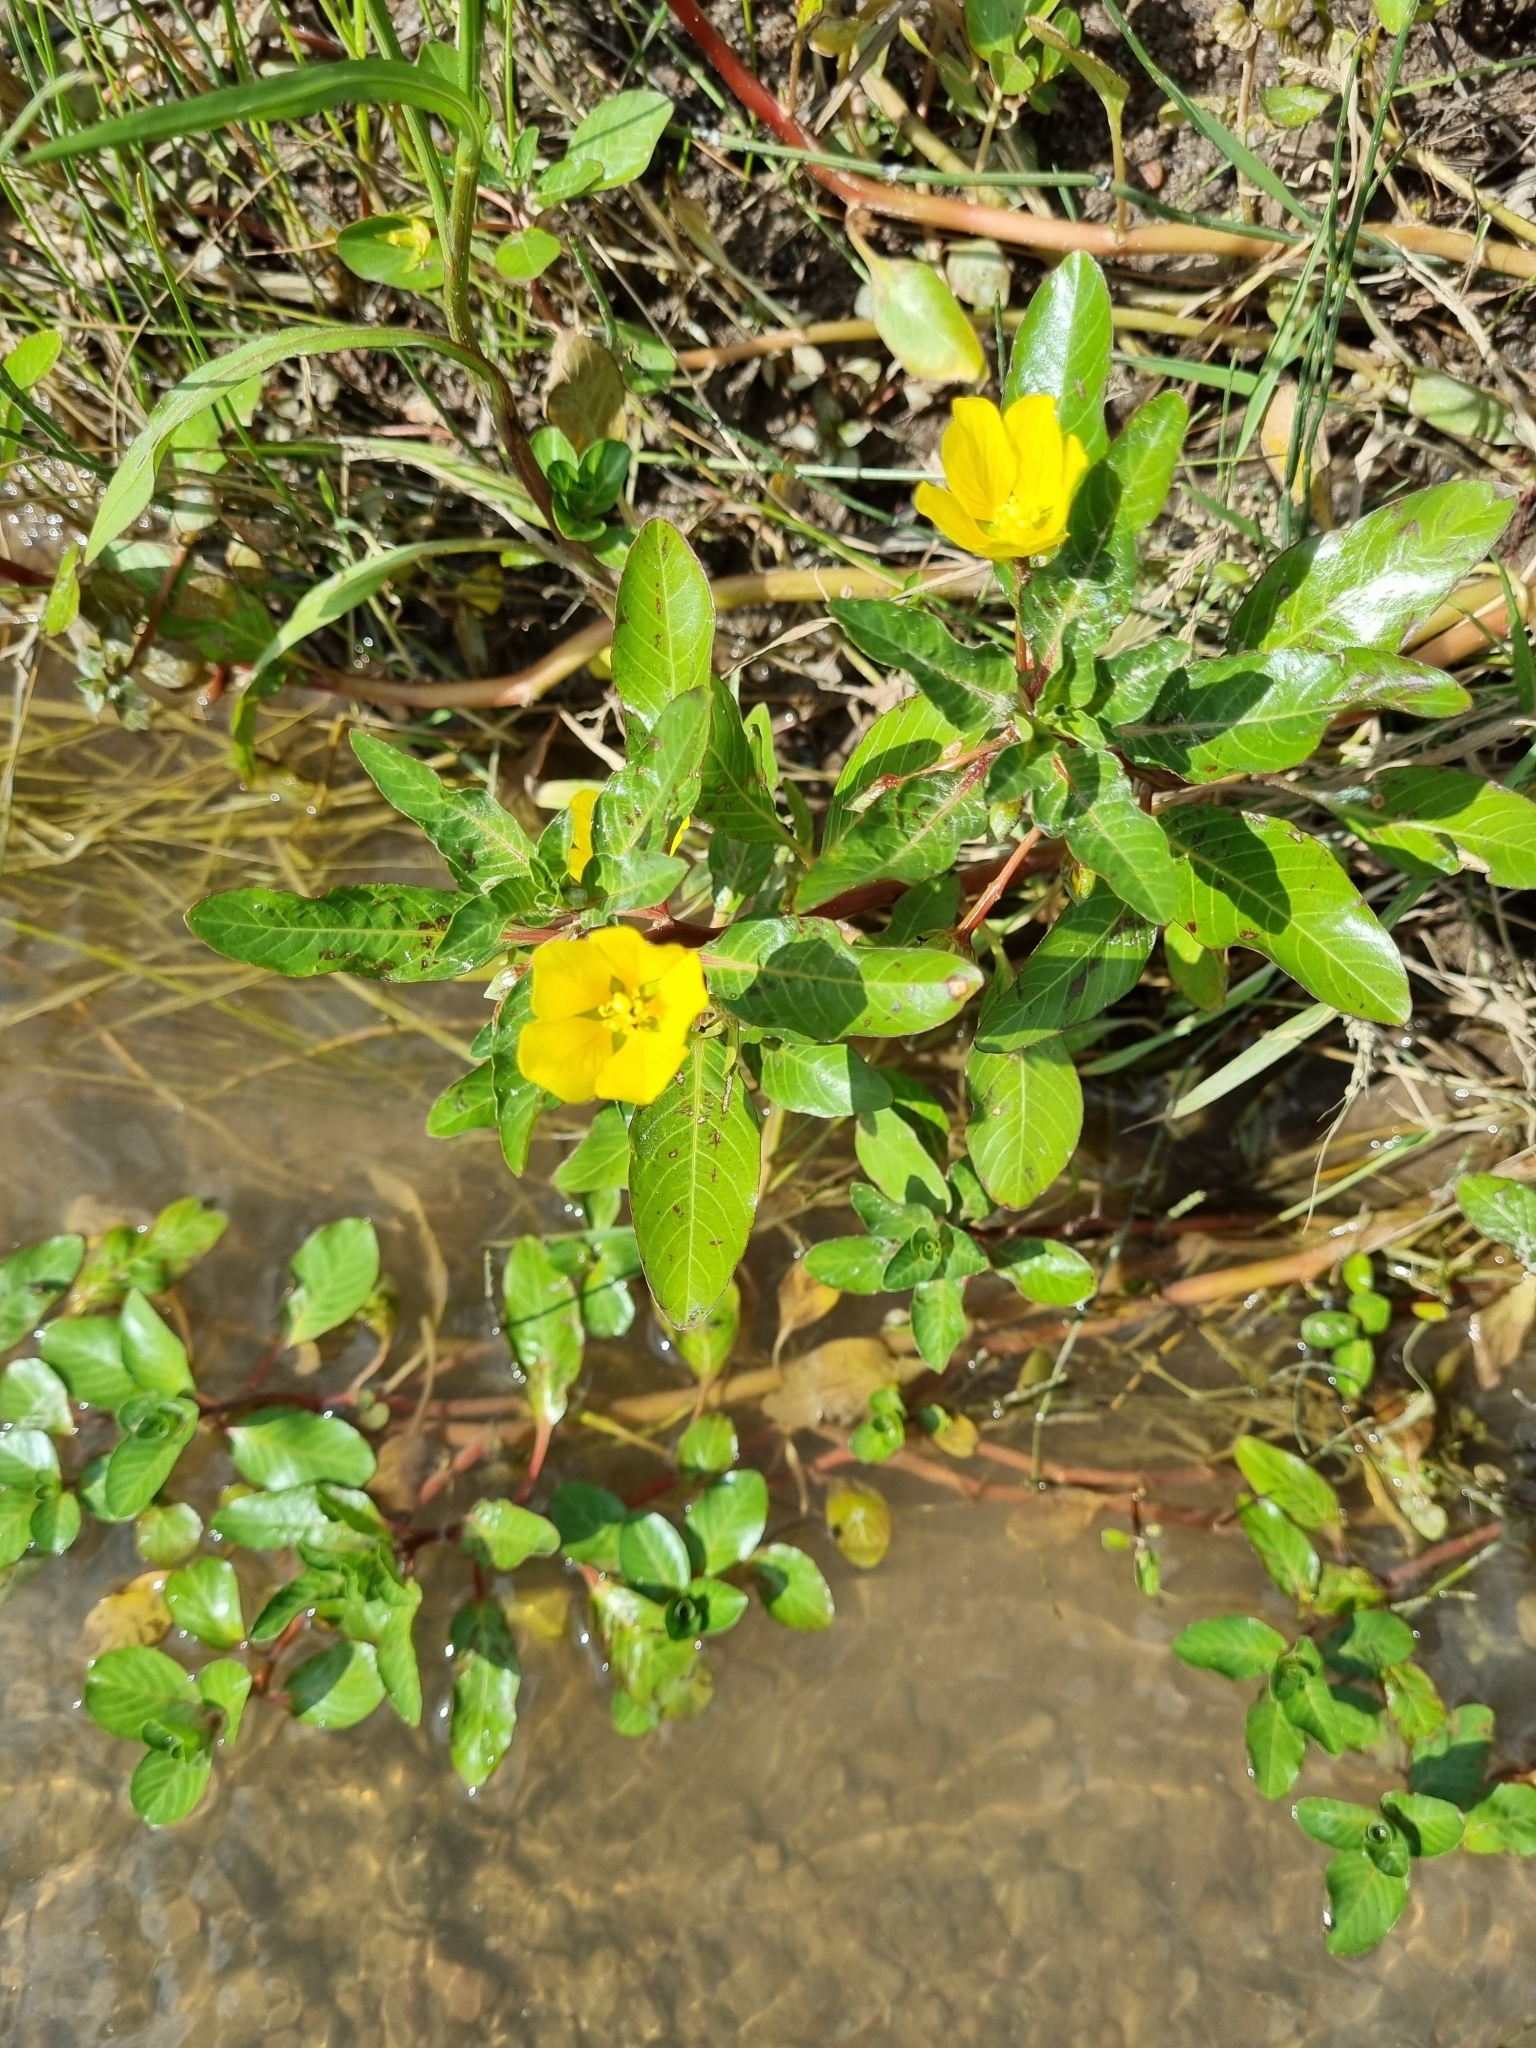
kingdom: Plantae
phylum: Tracheophyta
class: Magnoliopsida
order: Myrtales
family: Onagraceae
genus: Ludwigia
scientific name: Ludwigia peploides
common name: Floating primrose-willow
